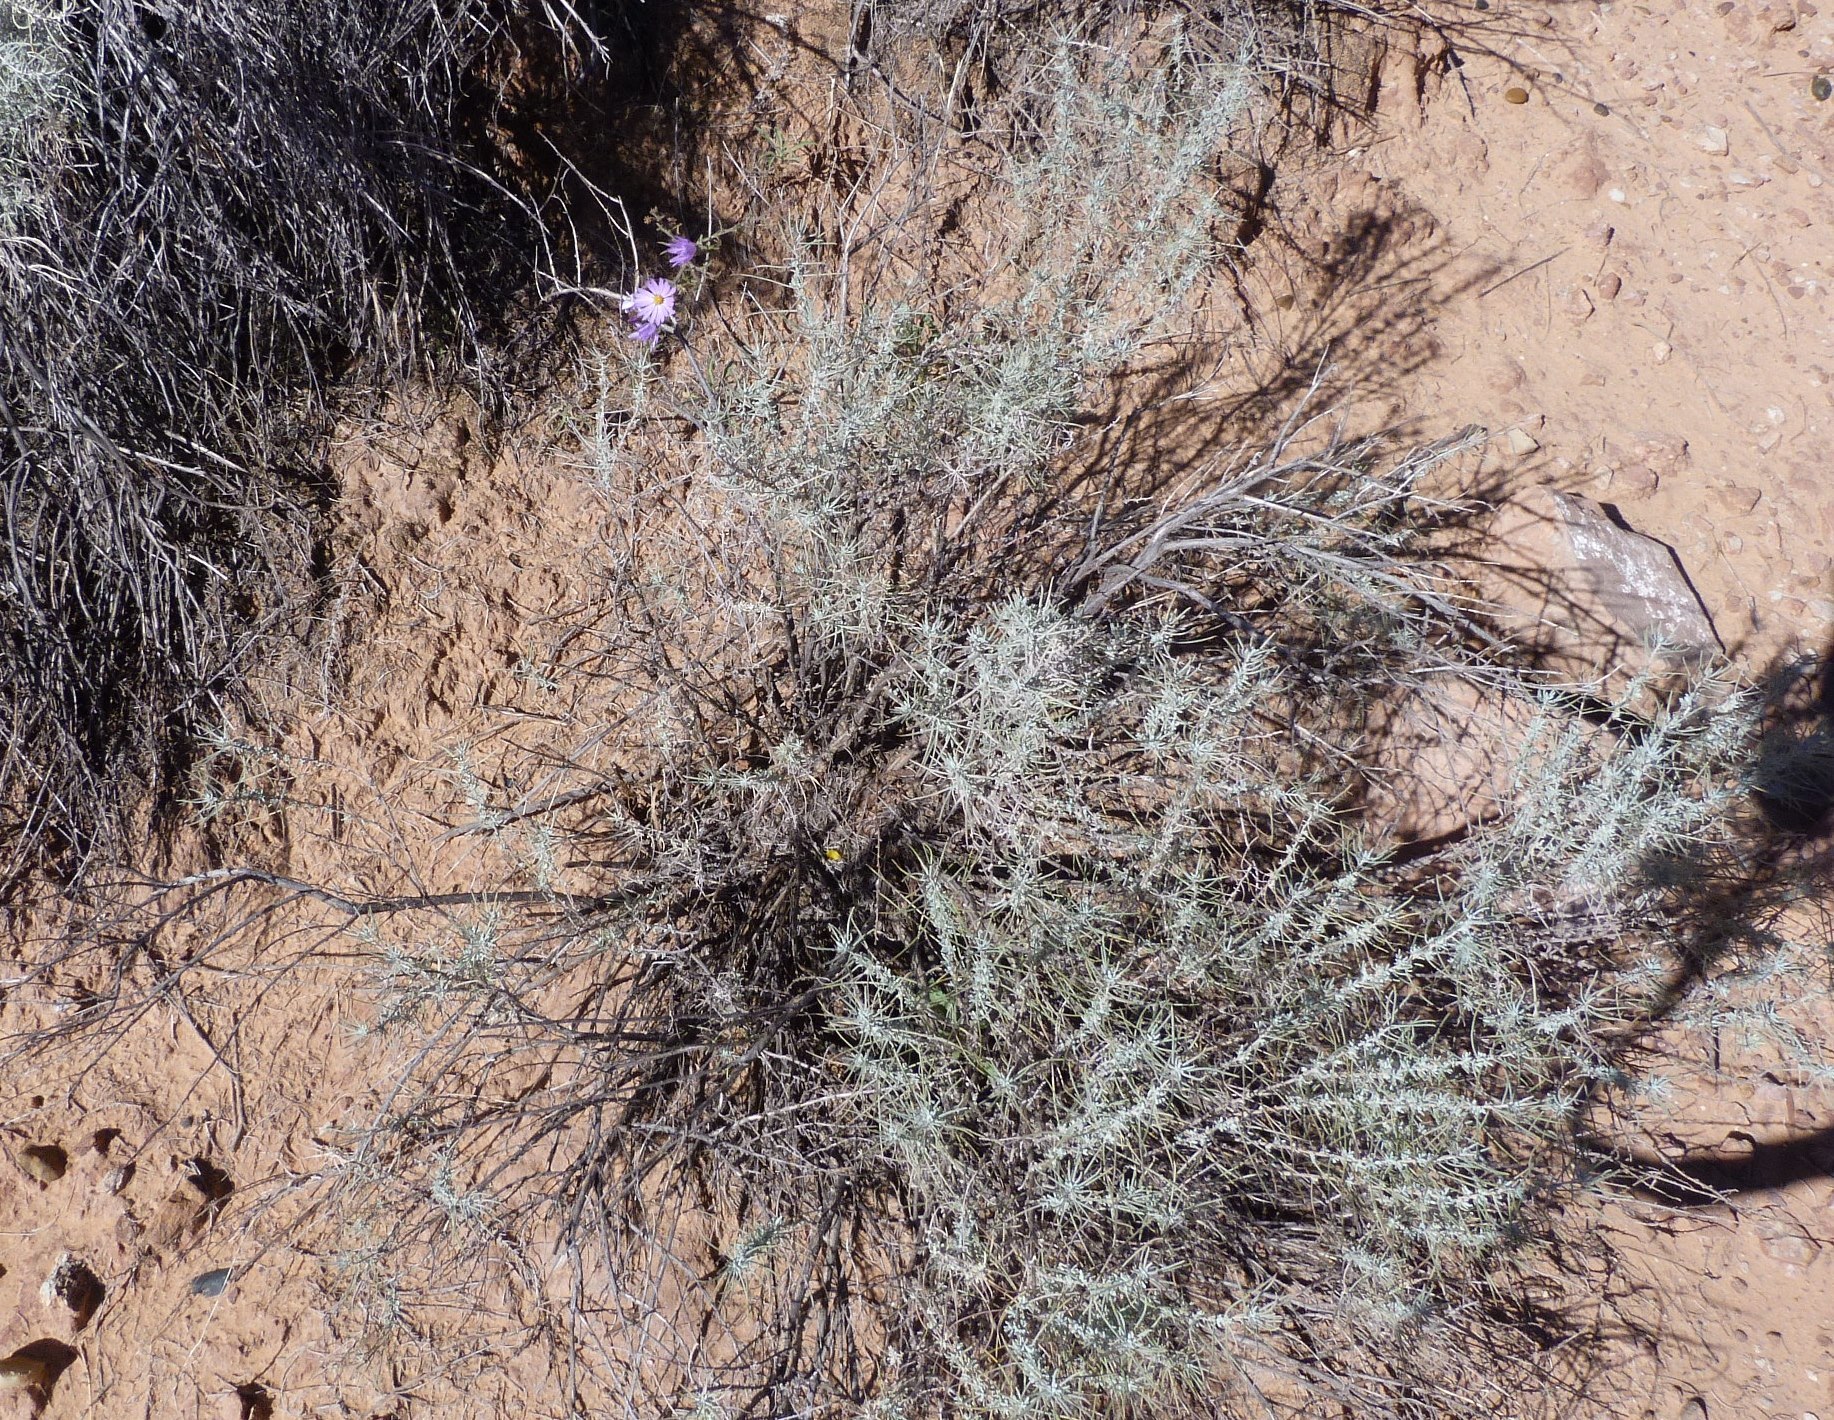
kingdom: Plantae
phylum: Tracheophyta
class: Magnoliopsida
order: Asterales
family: Asteraceae
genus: Artemisia
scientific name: Artemisia filifolia
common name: Sand-sage
